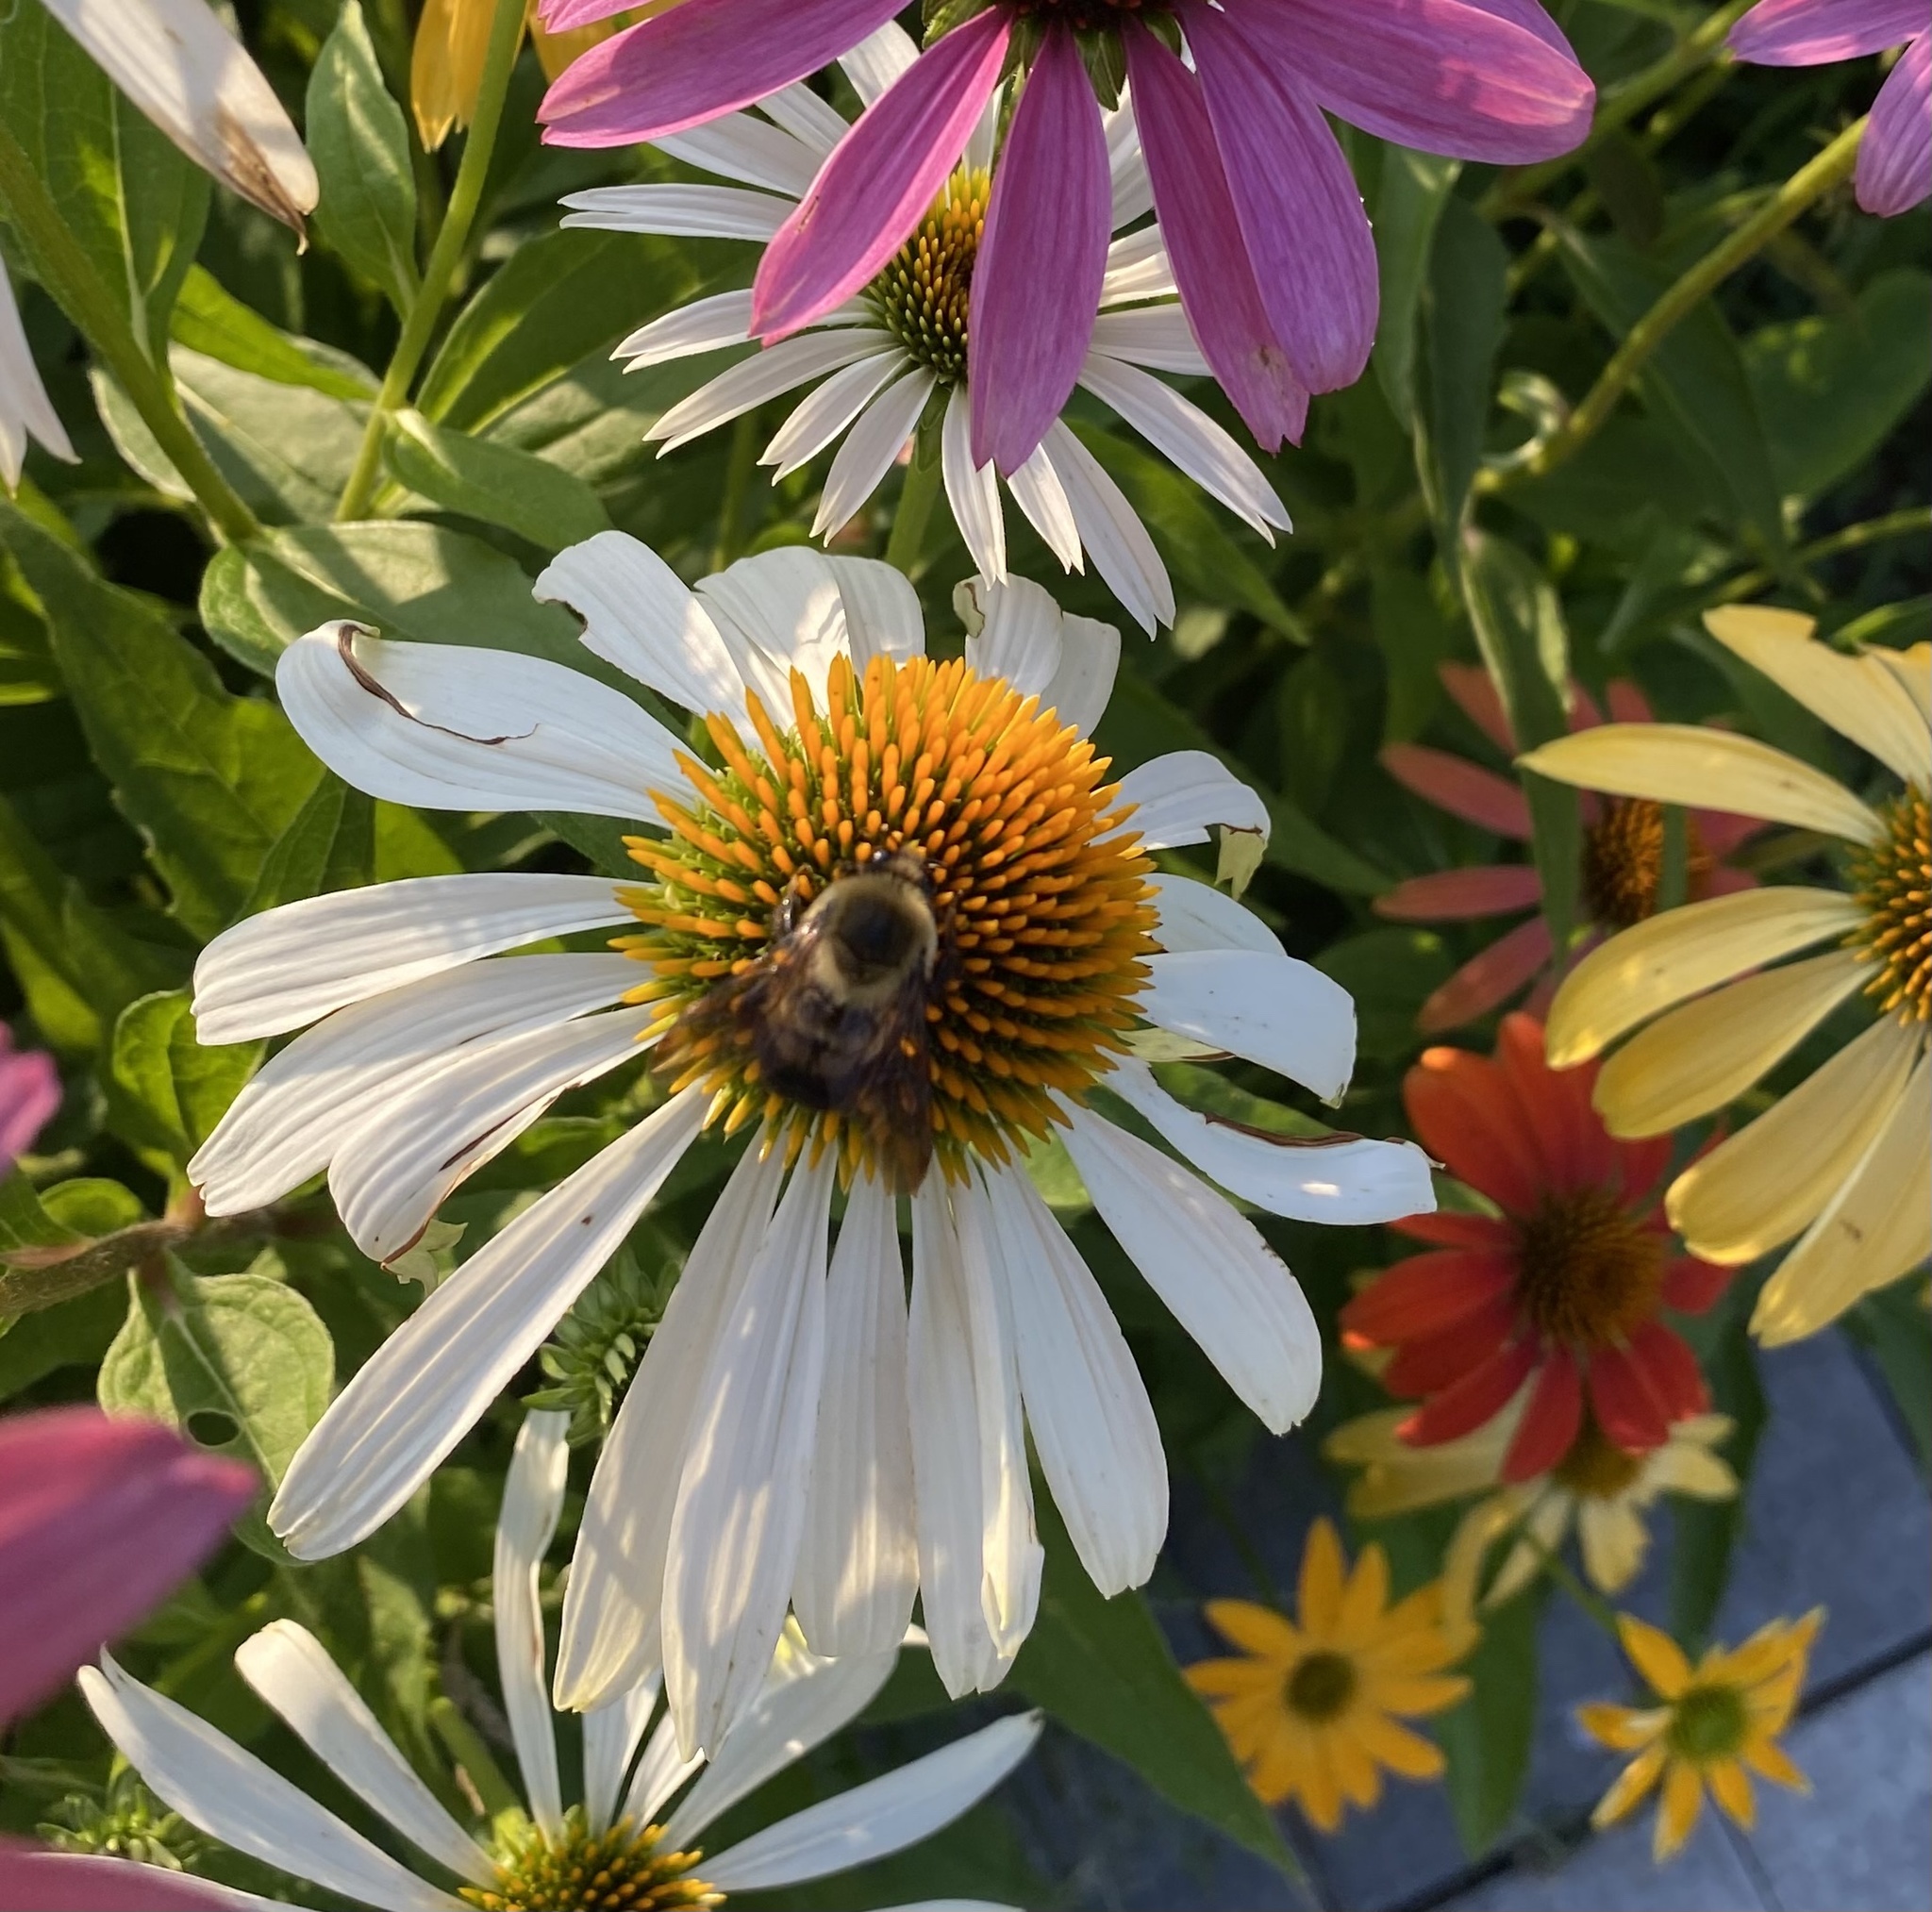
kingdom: Animalia
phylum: Arthropoda
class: Insecta
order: Hymenoptera
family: Apidae
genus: Bombus
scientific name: Bombus griseocollis
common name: Brown-belted bumble bee
